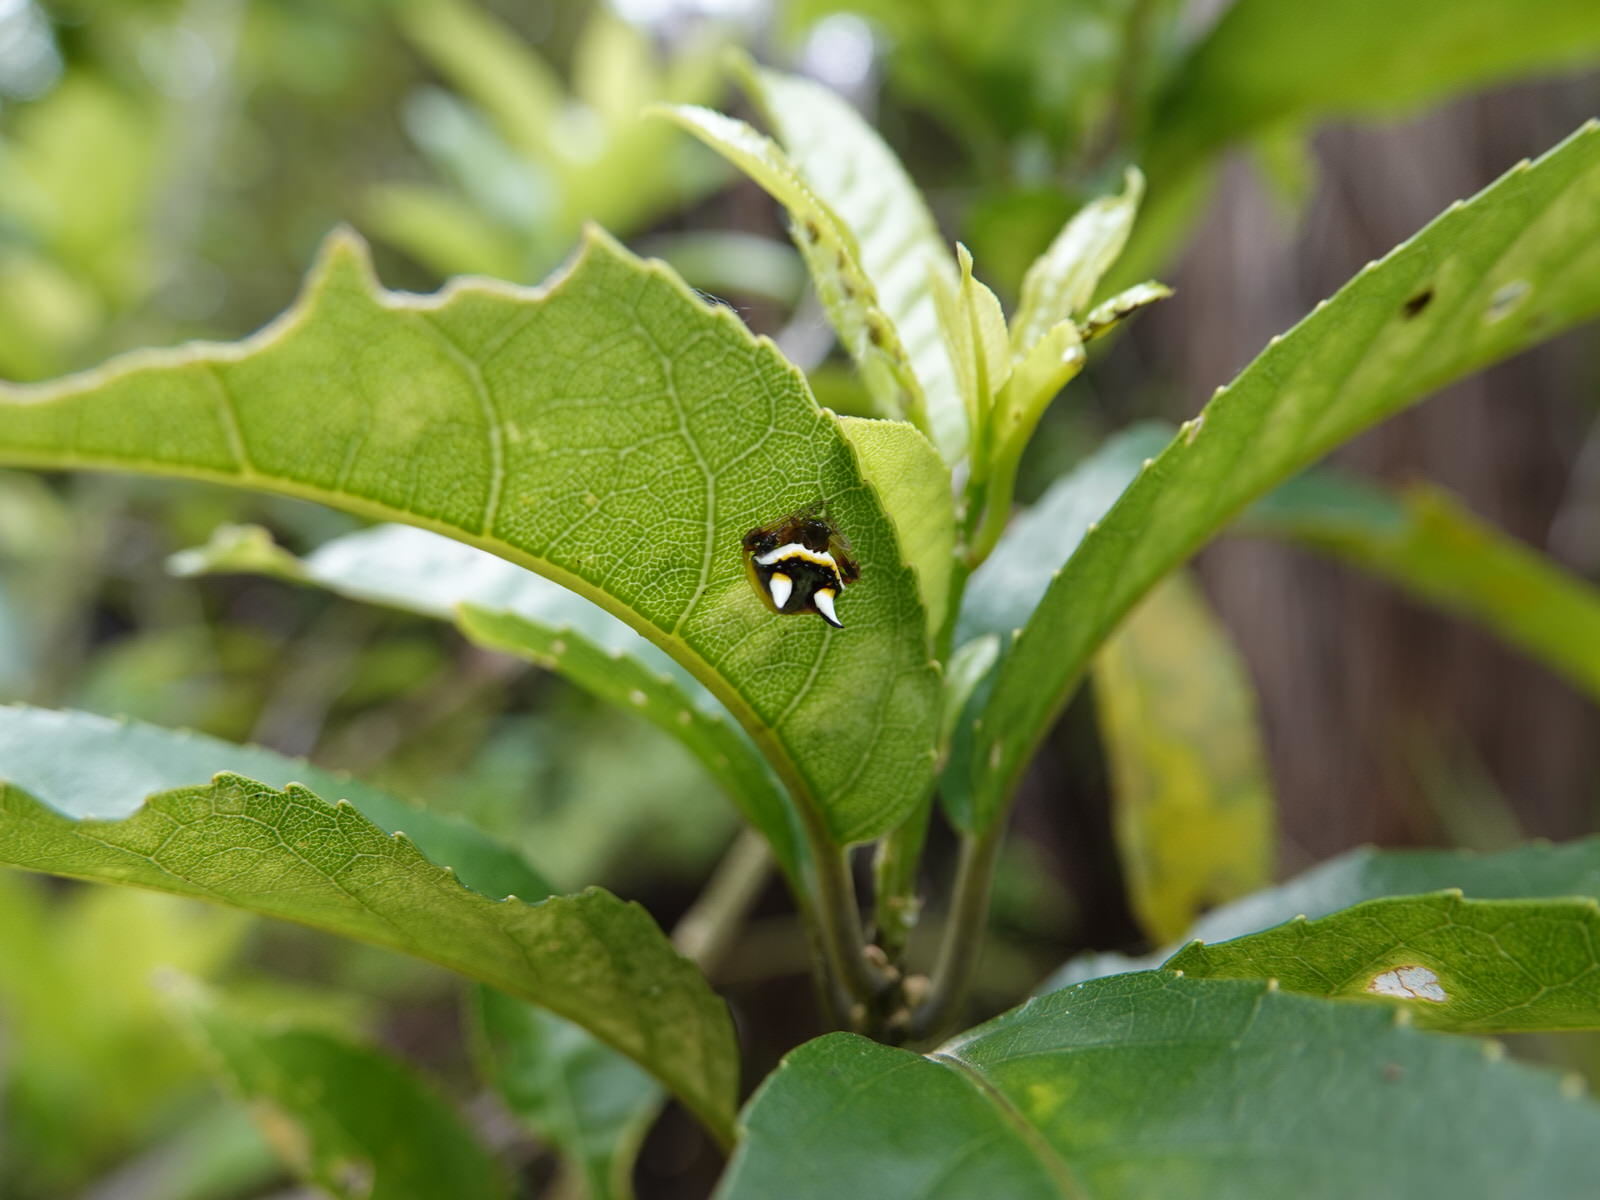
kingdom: Animalia
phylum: Arthropoda
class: Arachnida
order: Araneae
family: Araneidae
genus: Poecilopachys
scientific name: Poecilopachys australasia
